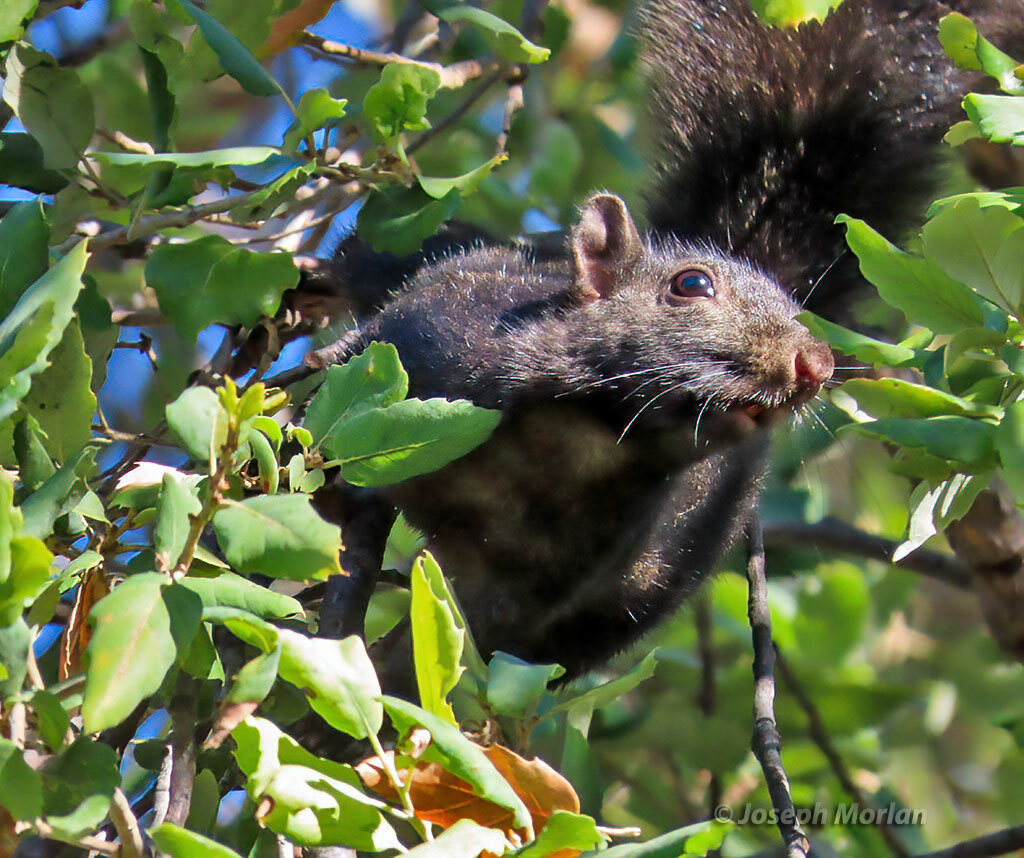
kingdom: Animalia
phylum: Chordata
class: Mammalia
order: Rodentia
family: Sciuridae
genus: Sciurus
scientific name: Sciurus carolinensis
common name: Eastern gray squirrel
